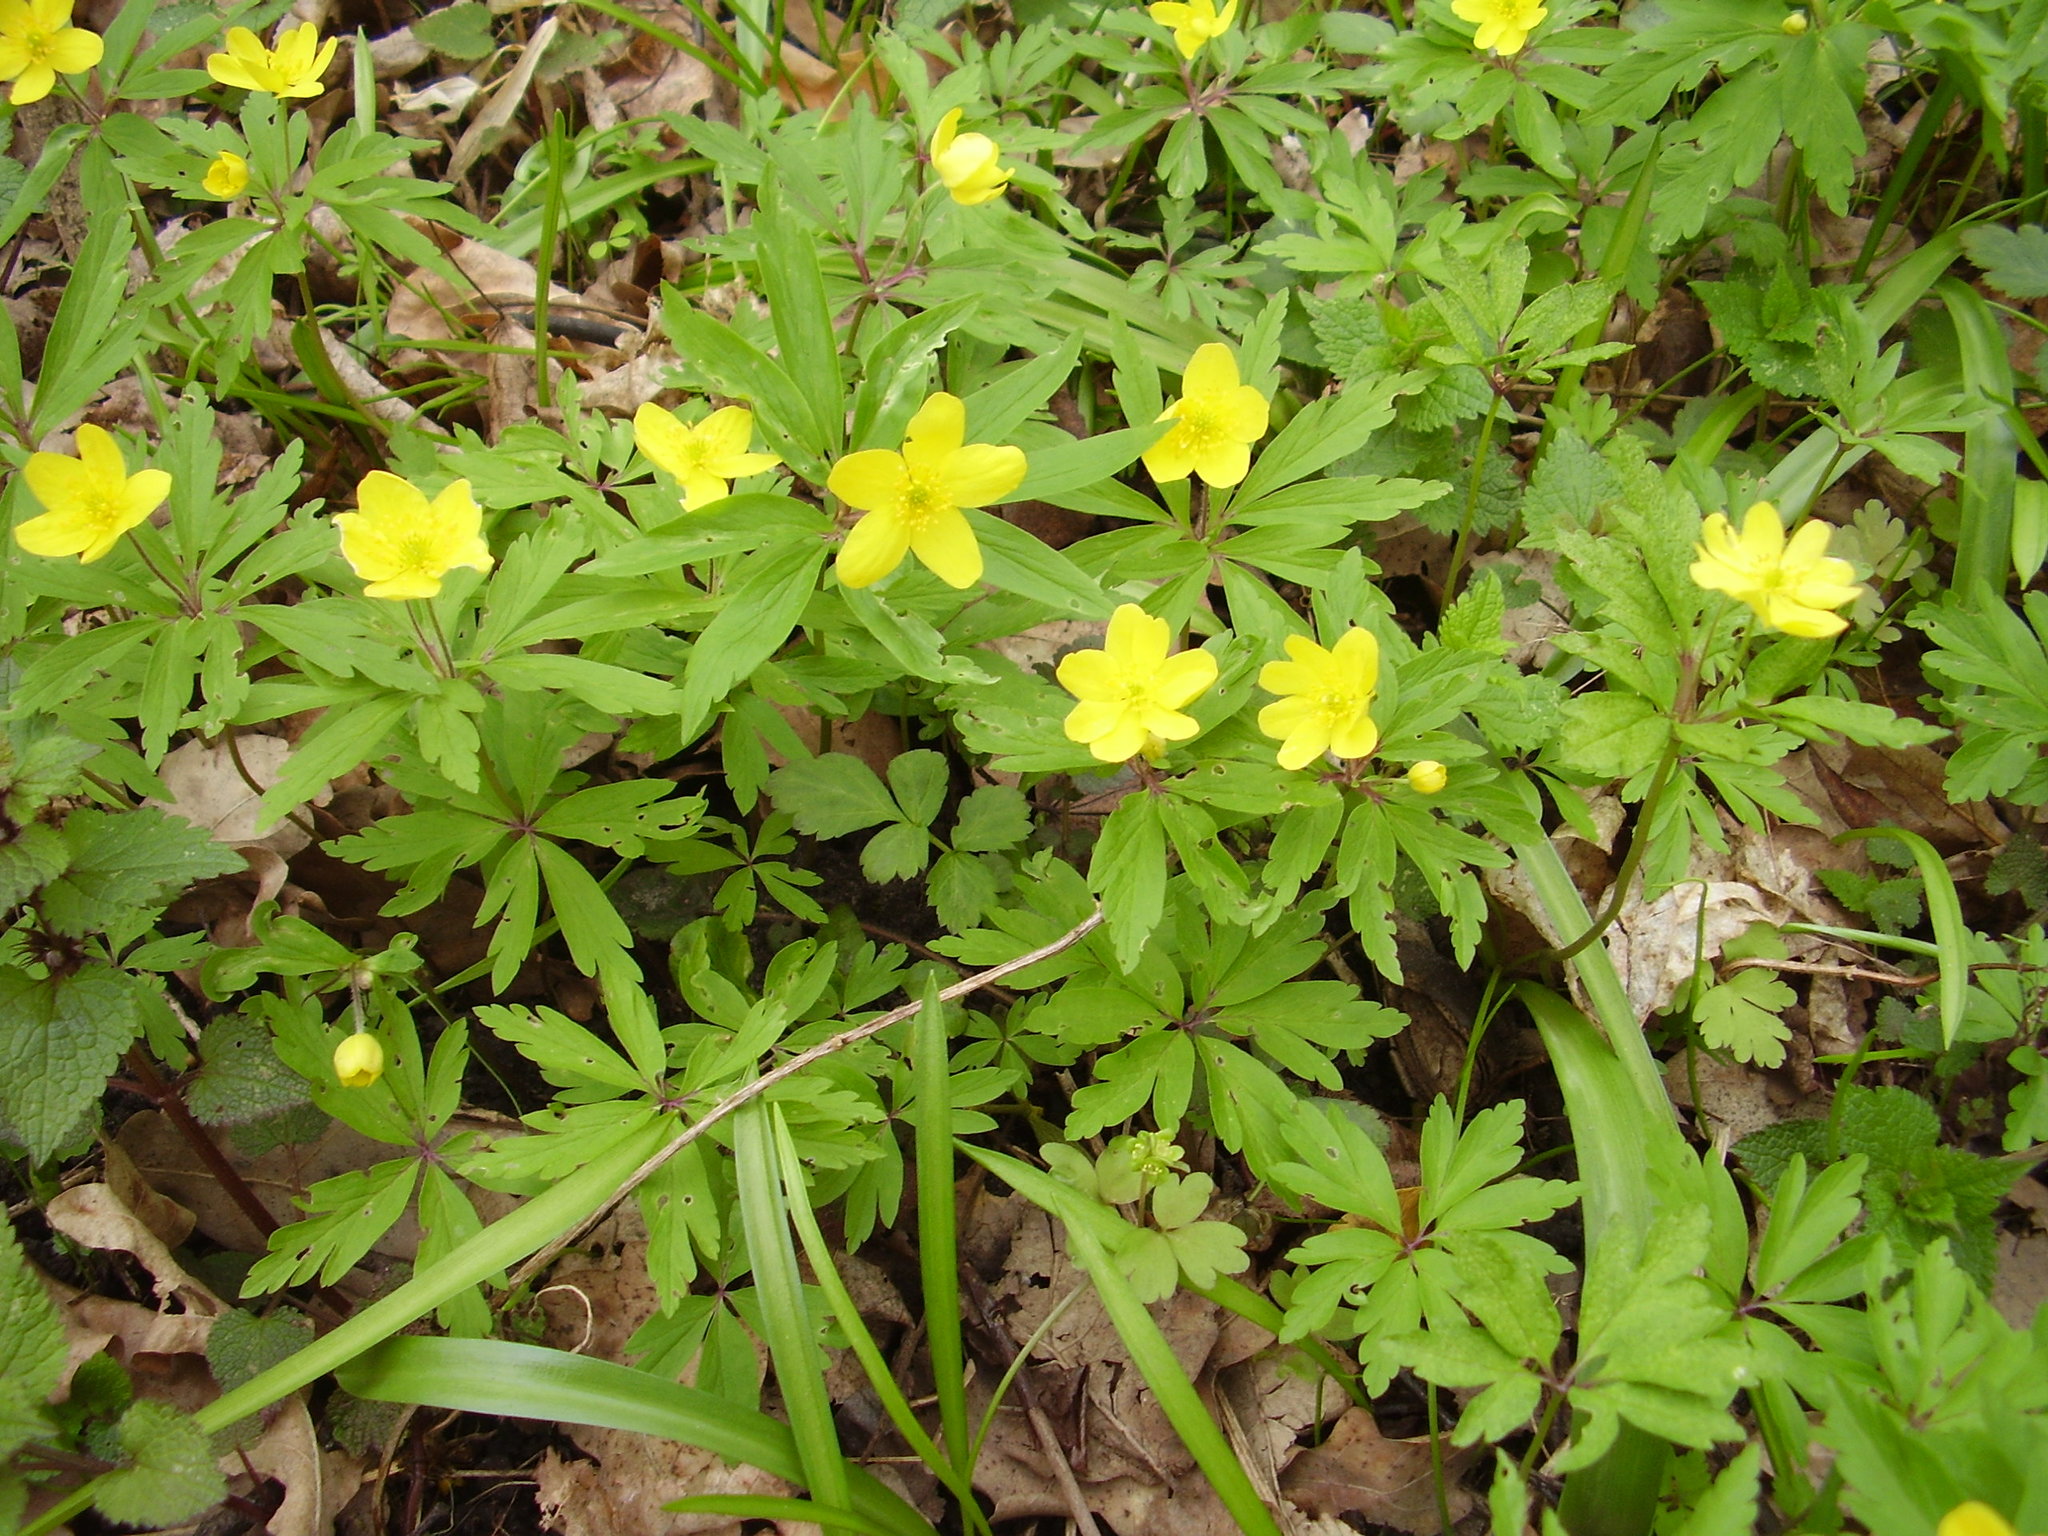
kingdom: Plantae
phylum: Tracheophyta
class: Magnoliopsida
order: Ranunculales
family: Ranunculaceae
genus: Anemone
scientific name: Anemone ranunculoides
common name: Yellow anemone
